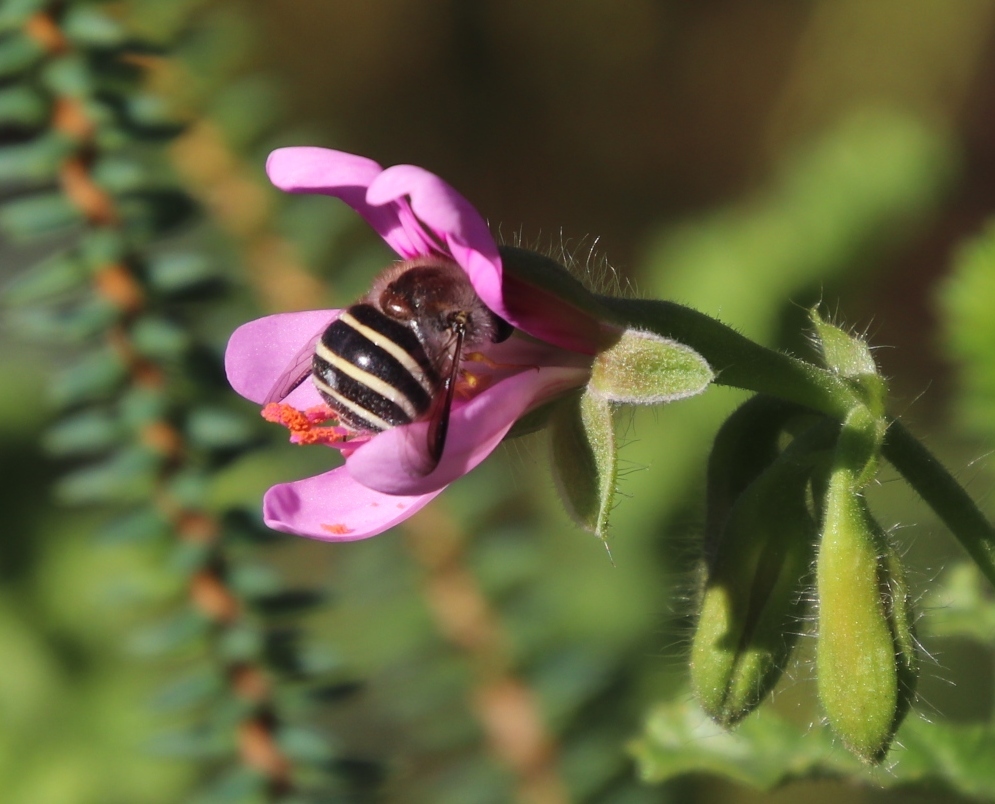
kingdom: Animalia
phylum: Arthropoda
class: Insecta
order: Diptera
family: Acroceridae
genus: Psilodera
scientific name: Psilodera fasciata
